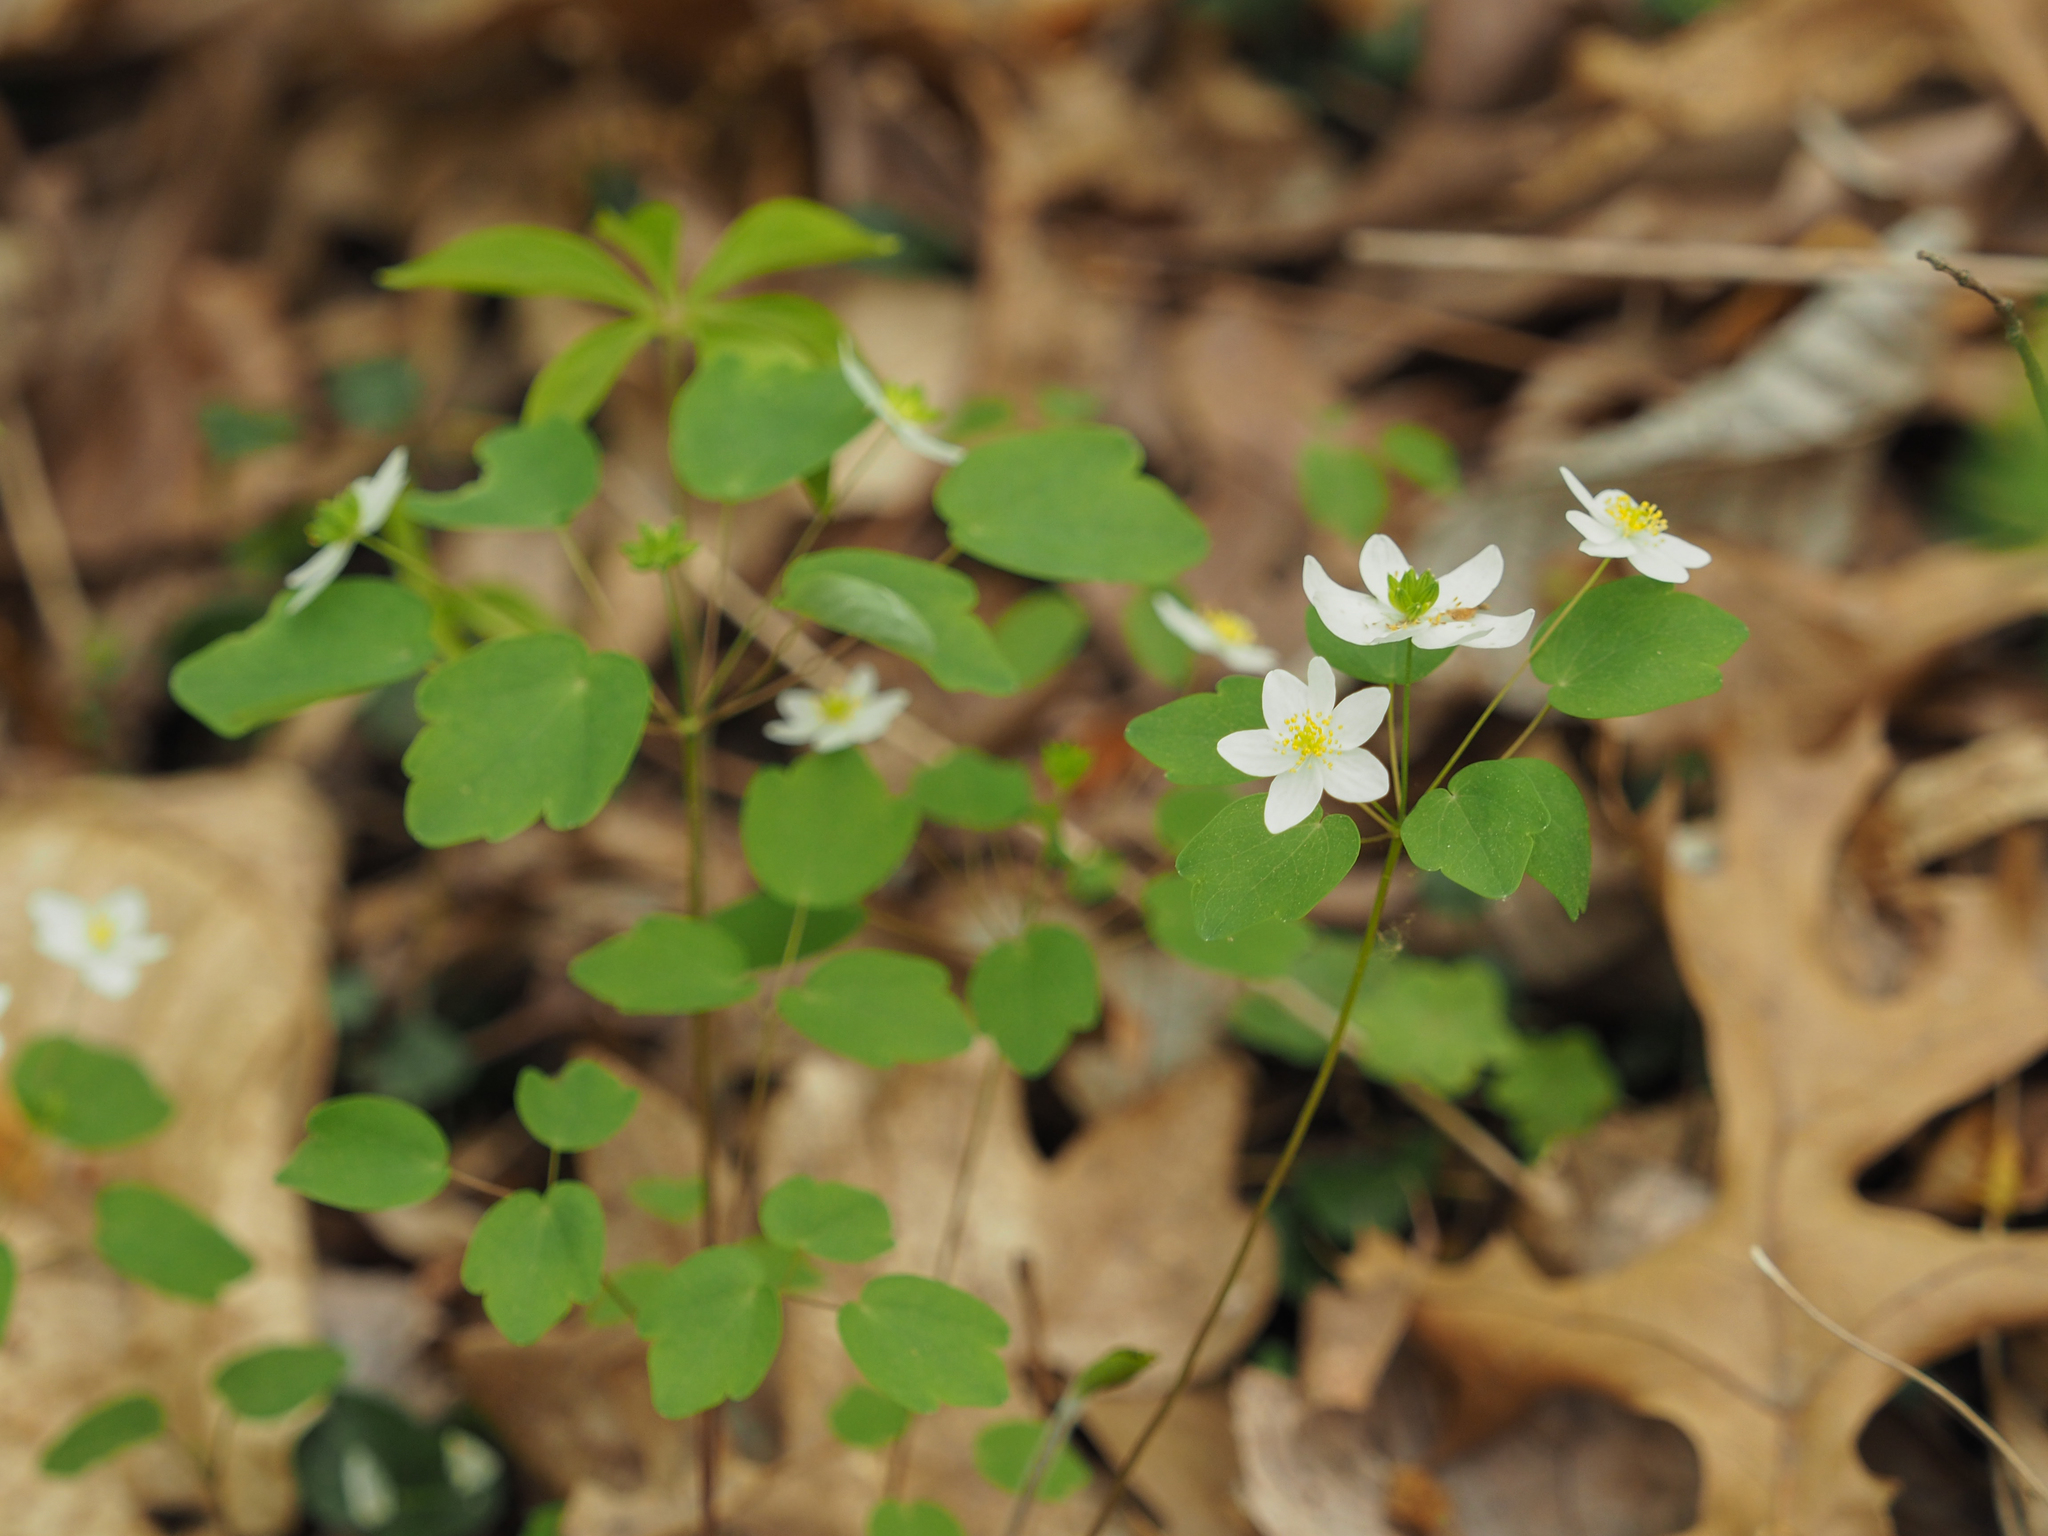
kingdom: Plantae
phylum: Tracheophyta
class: Magnoliopsida
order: Ranunculales
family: Ranunculaceae
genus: Thalictrum
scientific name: Thalictrum thalictroides
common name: Rue-anemone
